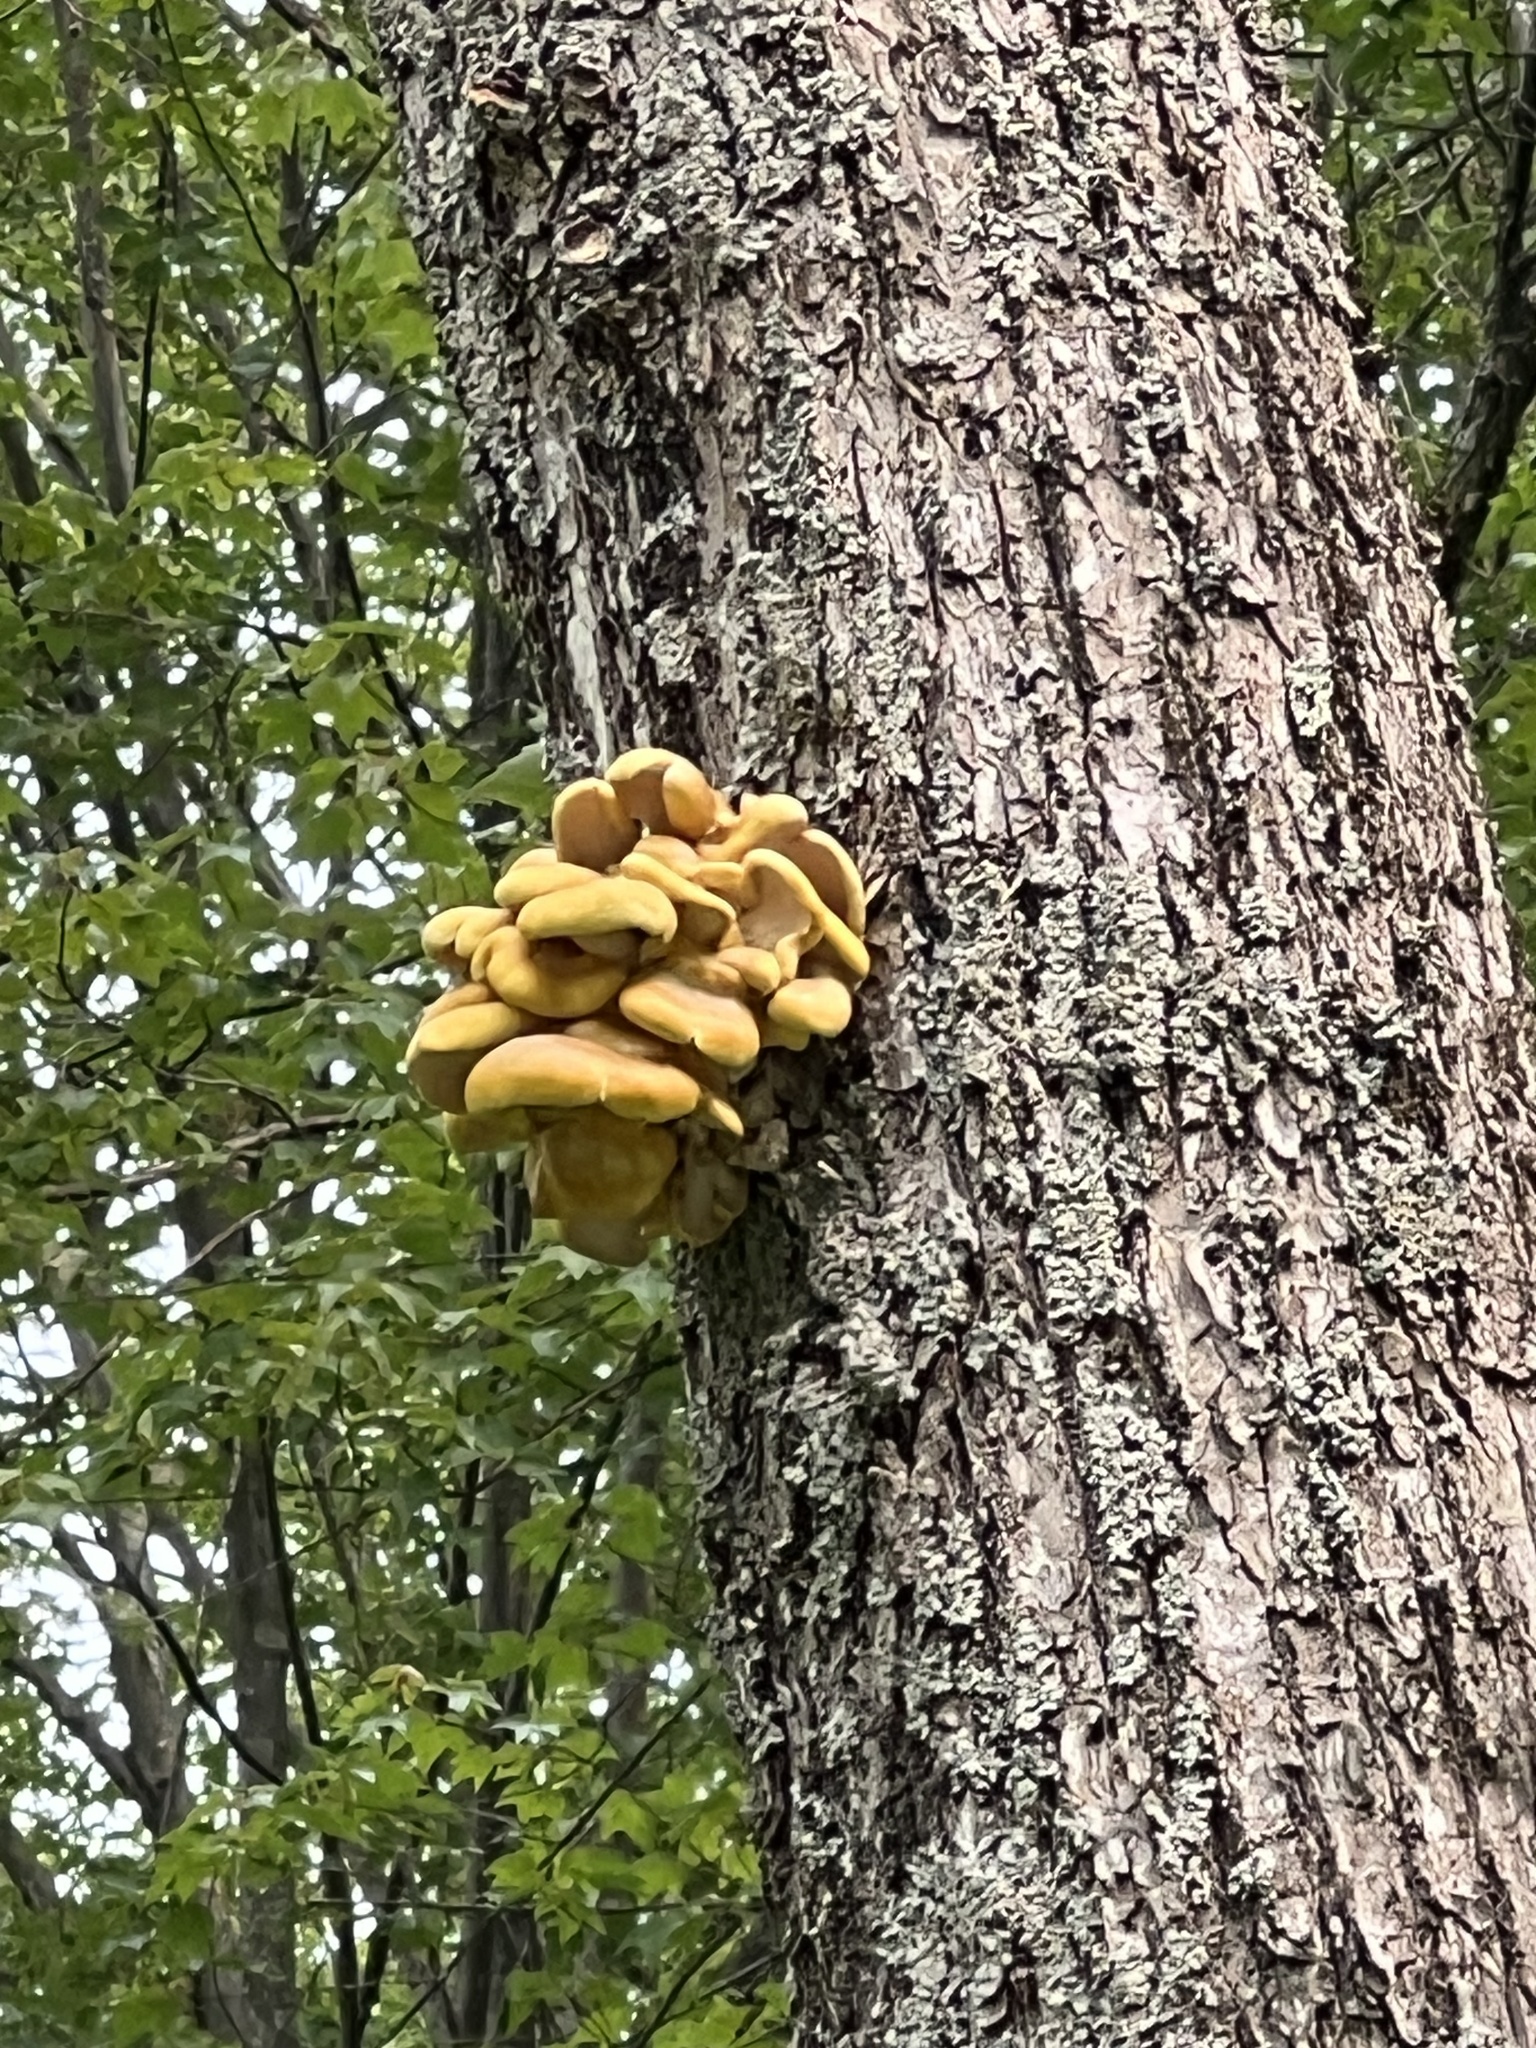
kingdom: Fungi
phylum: Basidiomycota
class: Agaricomycetes
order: Agaricales
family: Pleurotaceae
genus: Pleurotus
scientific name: Pleurotus citrinopileatus
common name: Golden oyster mushroom
